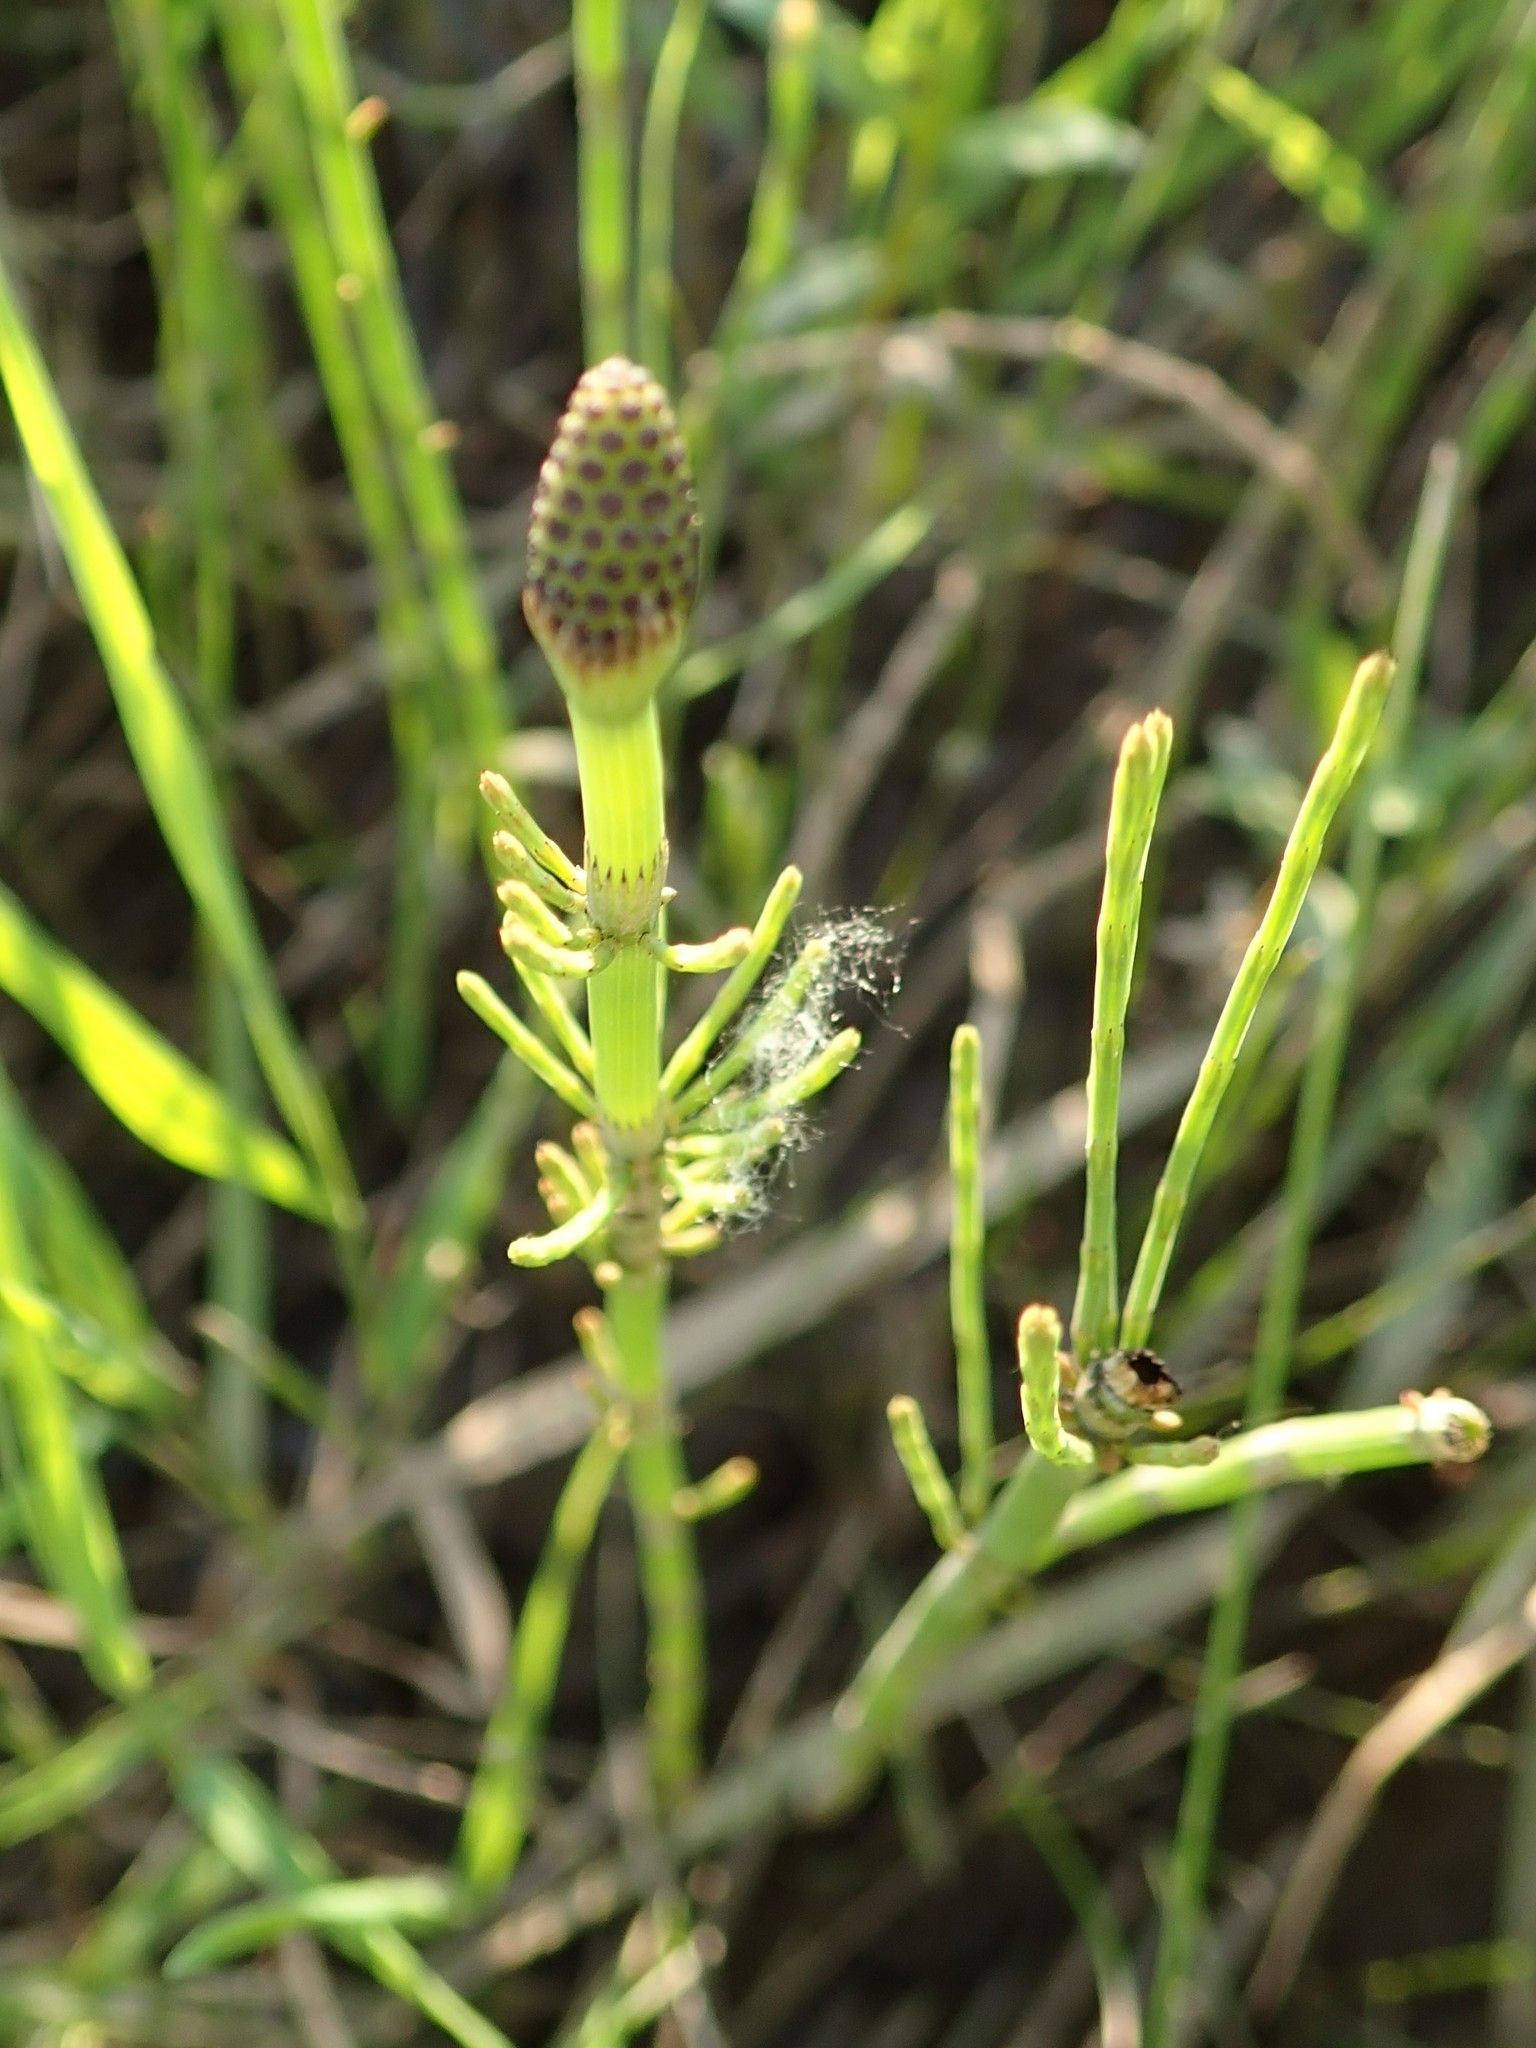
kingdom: Plantae
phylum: Tracheophyta
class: Polypodiopsida
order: Equisetales
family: Equisetaceae
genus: Equisetum
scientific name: Equisetum fluviatile
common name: Water horsetail
